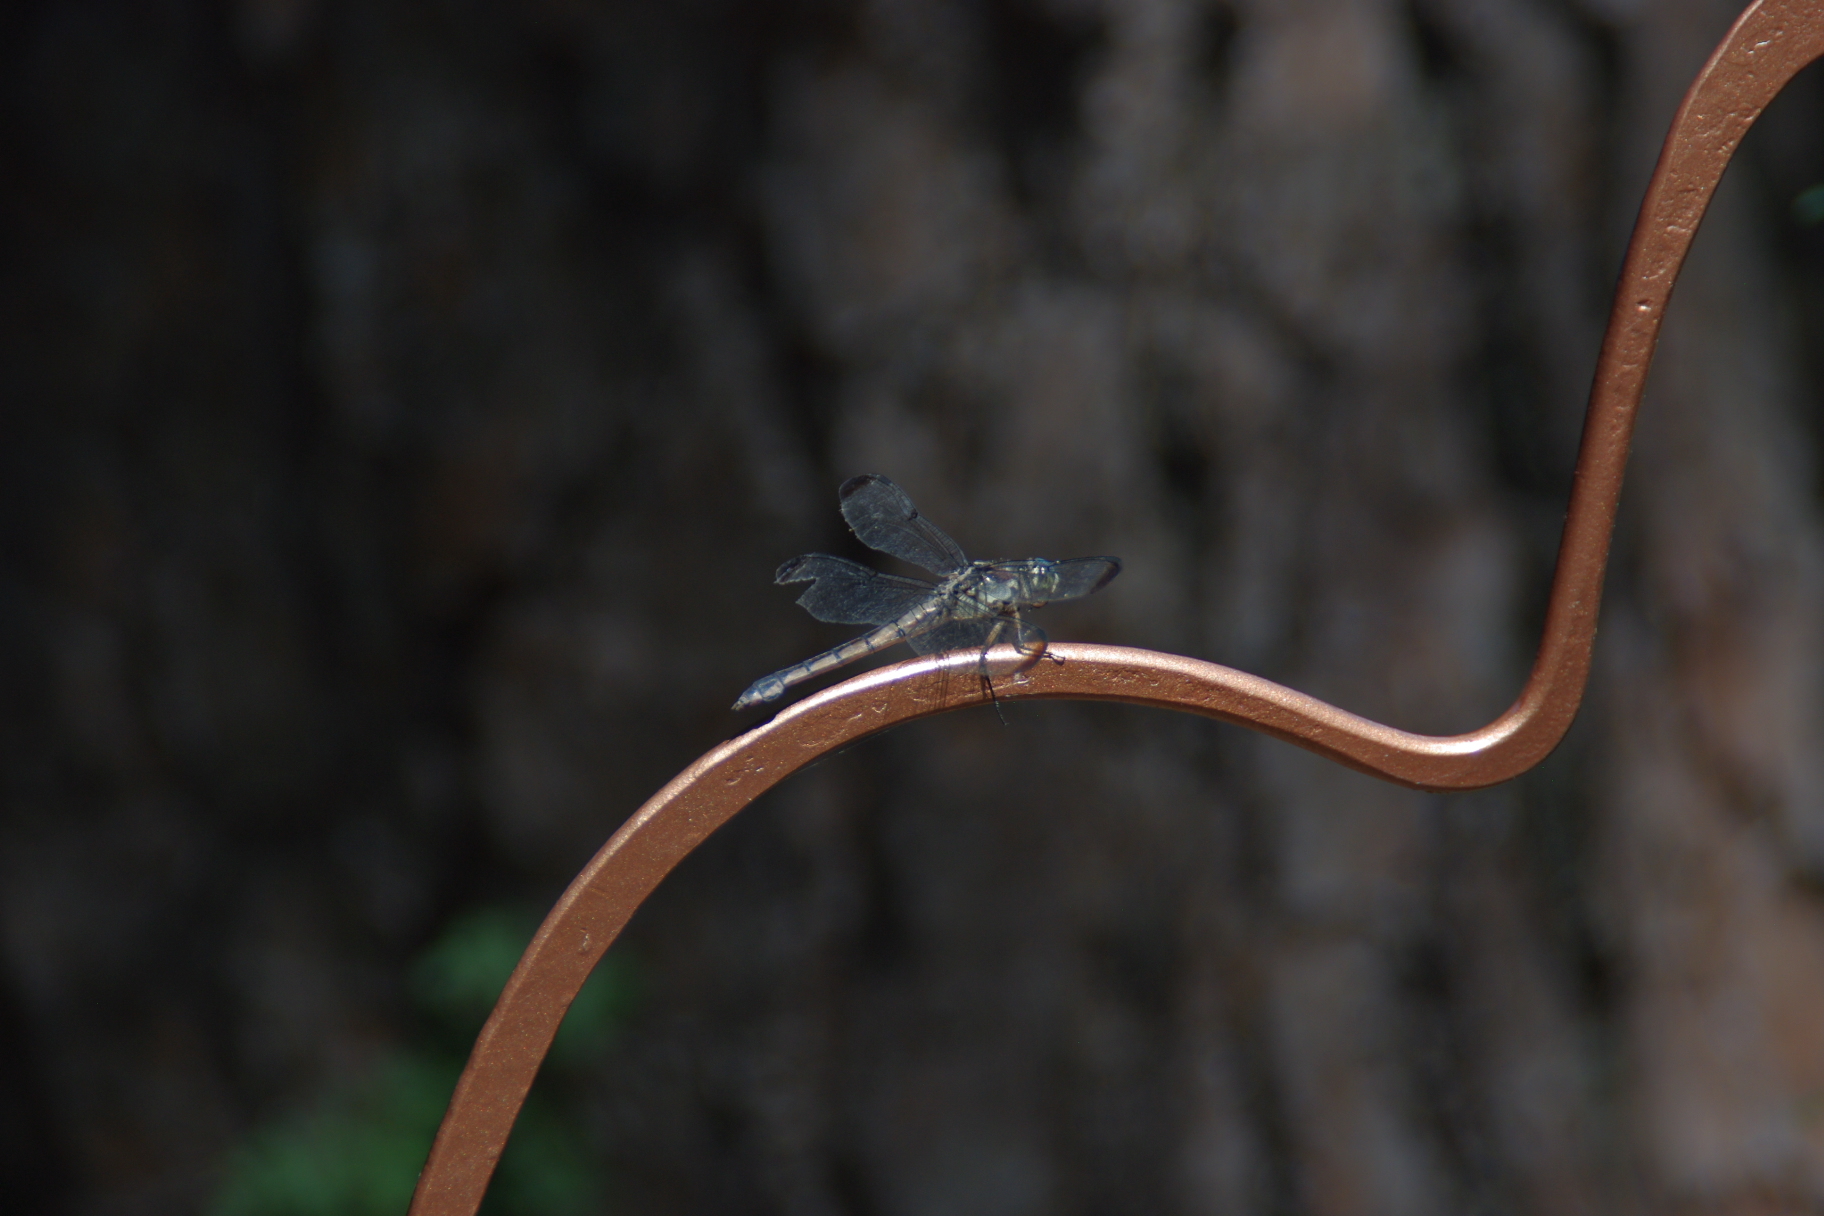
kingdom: Animalia
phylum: Arthropoda
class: Insecta
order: Odonata
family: Libellulidae
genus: Libellula
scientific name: Libellula vibrans
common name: Great blue skimmer
